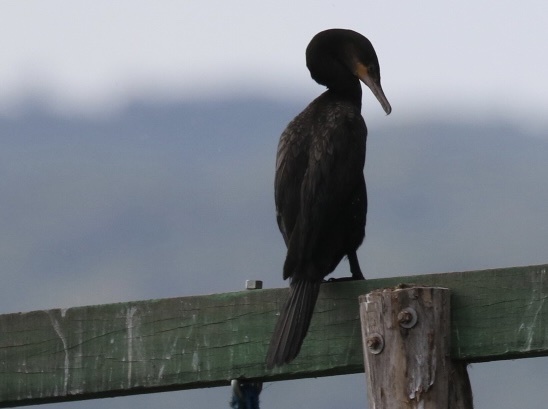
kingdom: Animalia
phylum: Chordata
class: Aves
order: Suliformes
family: Phalacrocoracidae
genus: Phalacrocorax
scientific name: Phalacrocorax brasilianus
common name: Neotropic cormorant
